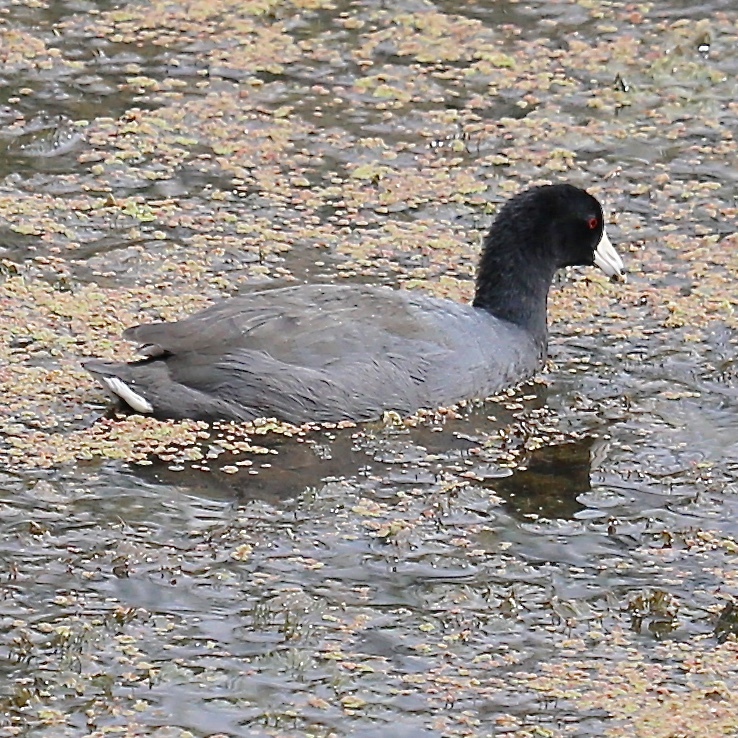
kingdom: Animalia
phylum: Chordata
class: Aves
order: Gruiformes
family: Rallidae
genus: Fulica
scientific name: Fulica americana
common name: American coot
